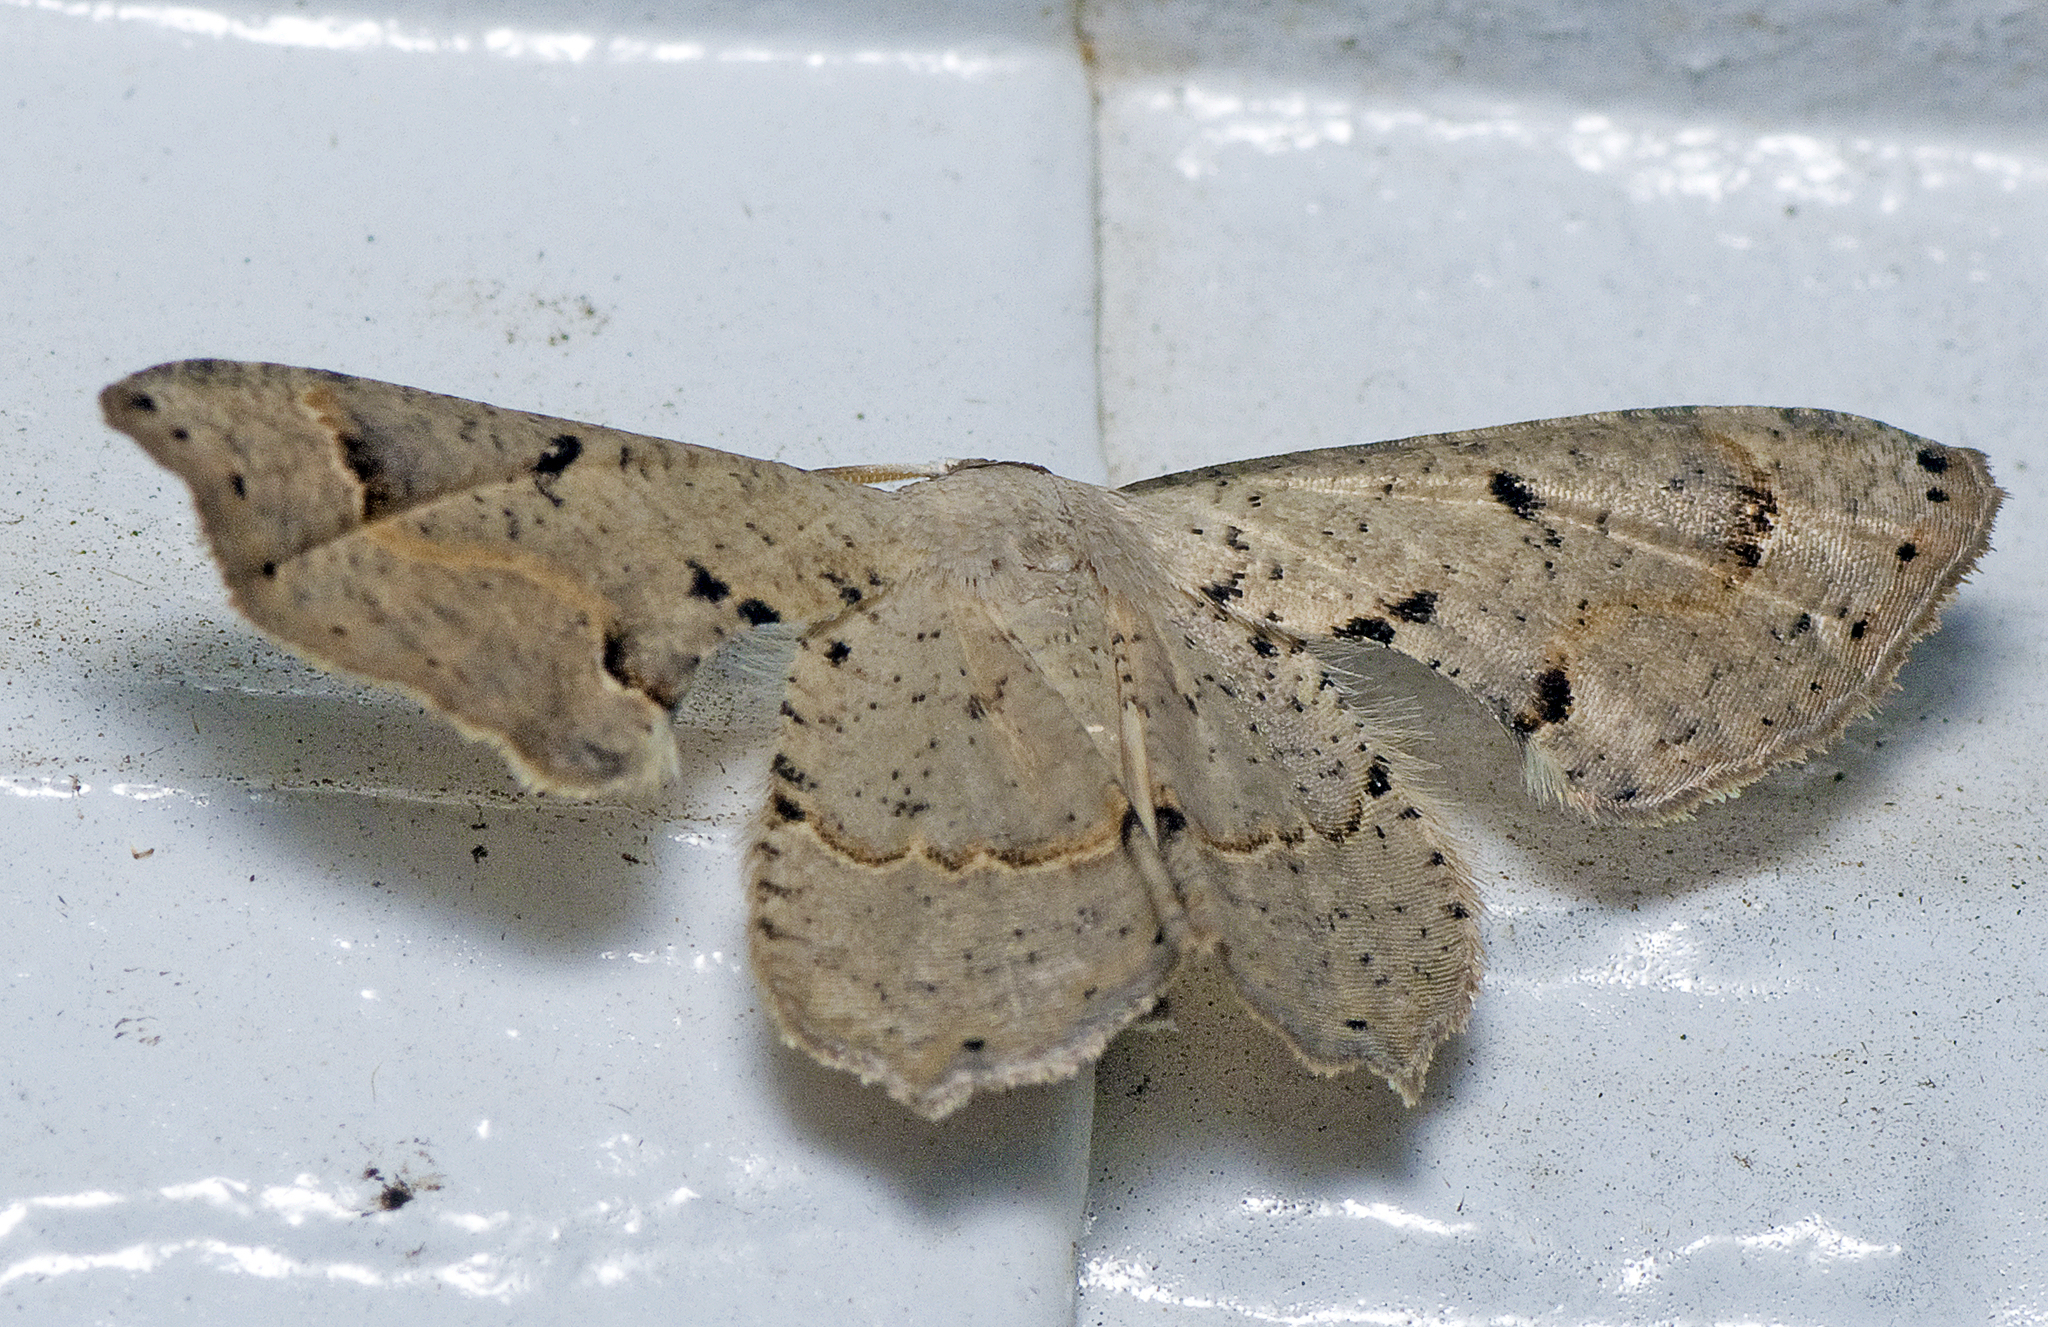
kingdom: Animalia
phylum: Arthropoda
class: Insecta
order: Lepidoptera
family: Uraniidae
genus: Phazaca
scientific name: Phazaca leucocephala
